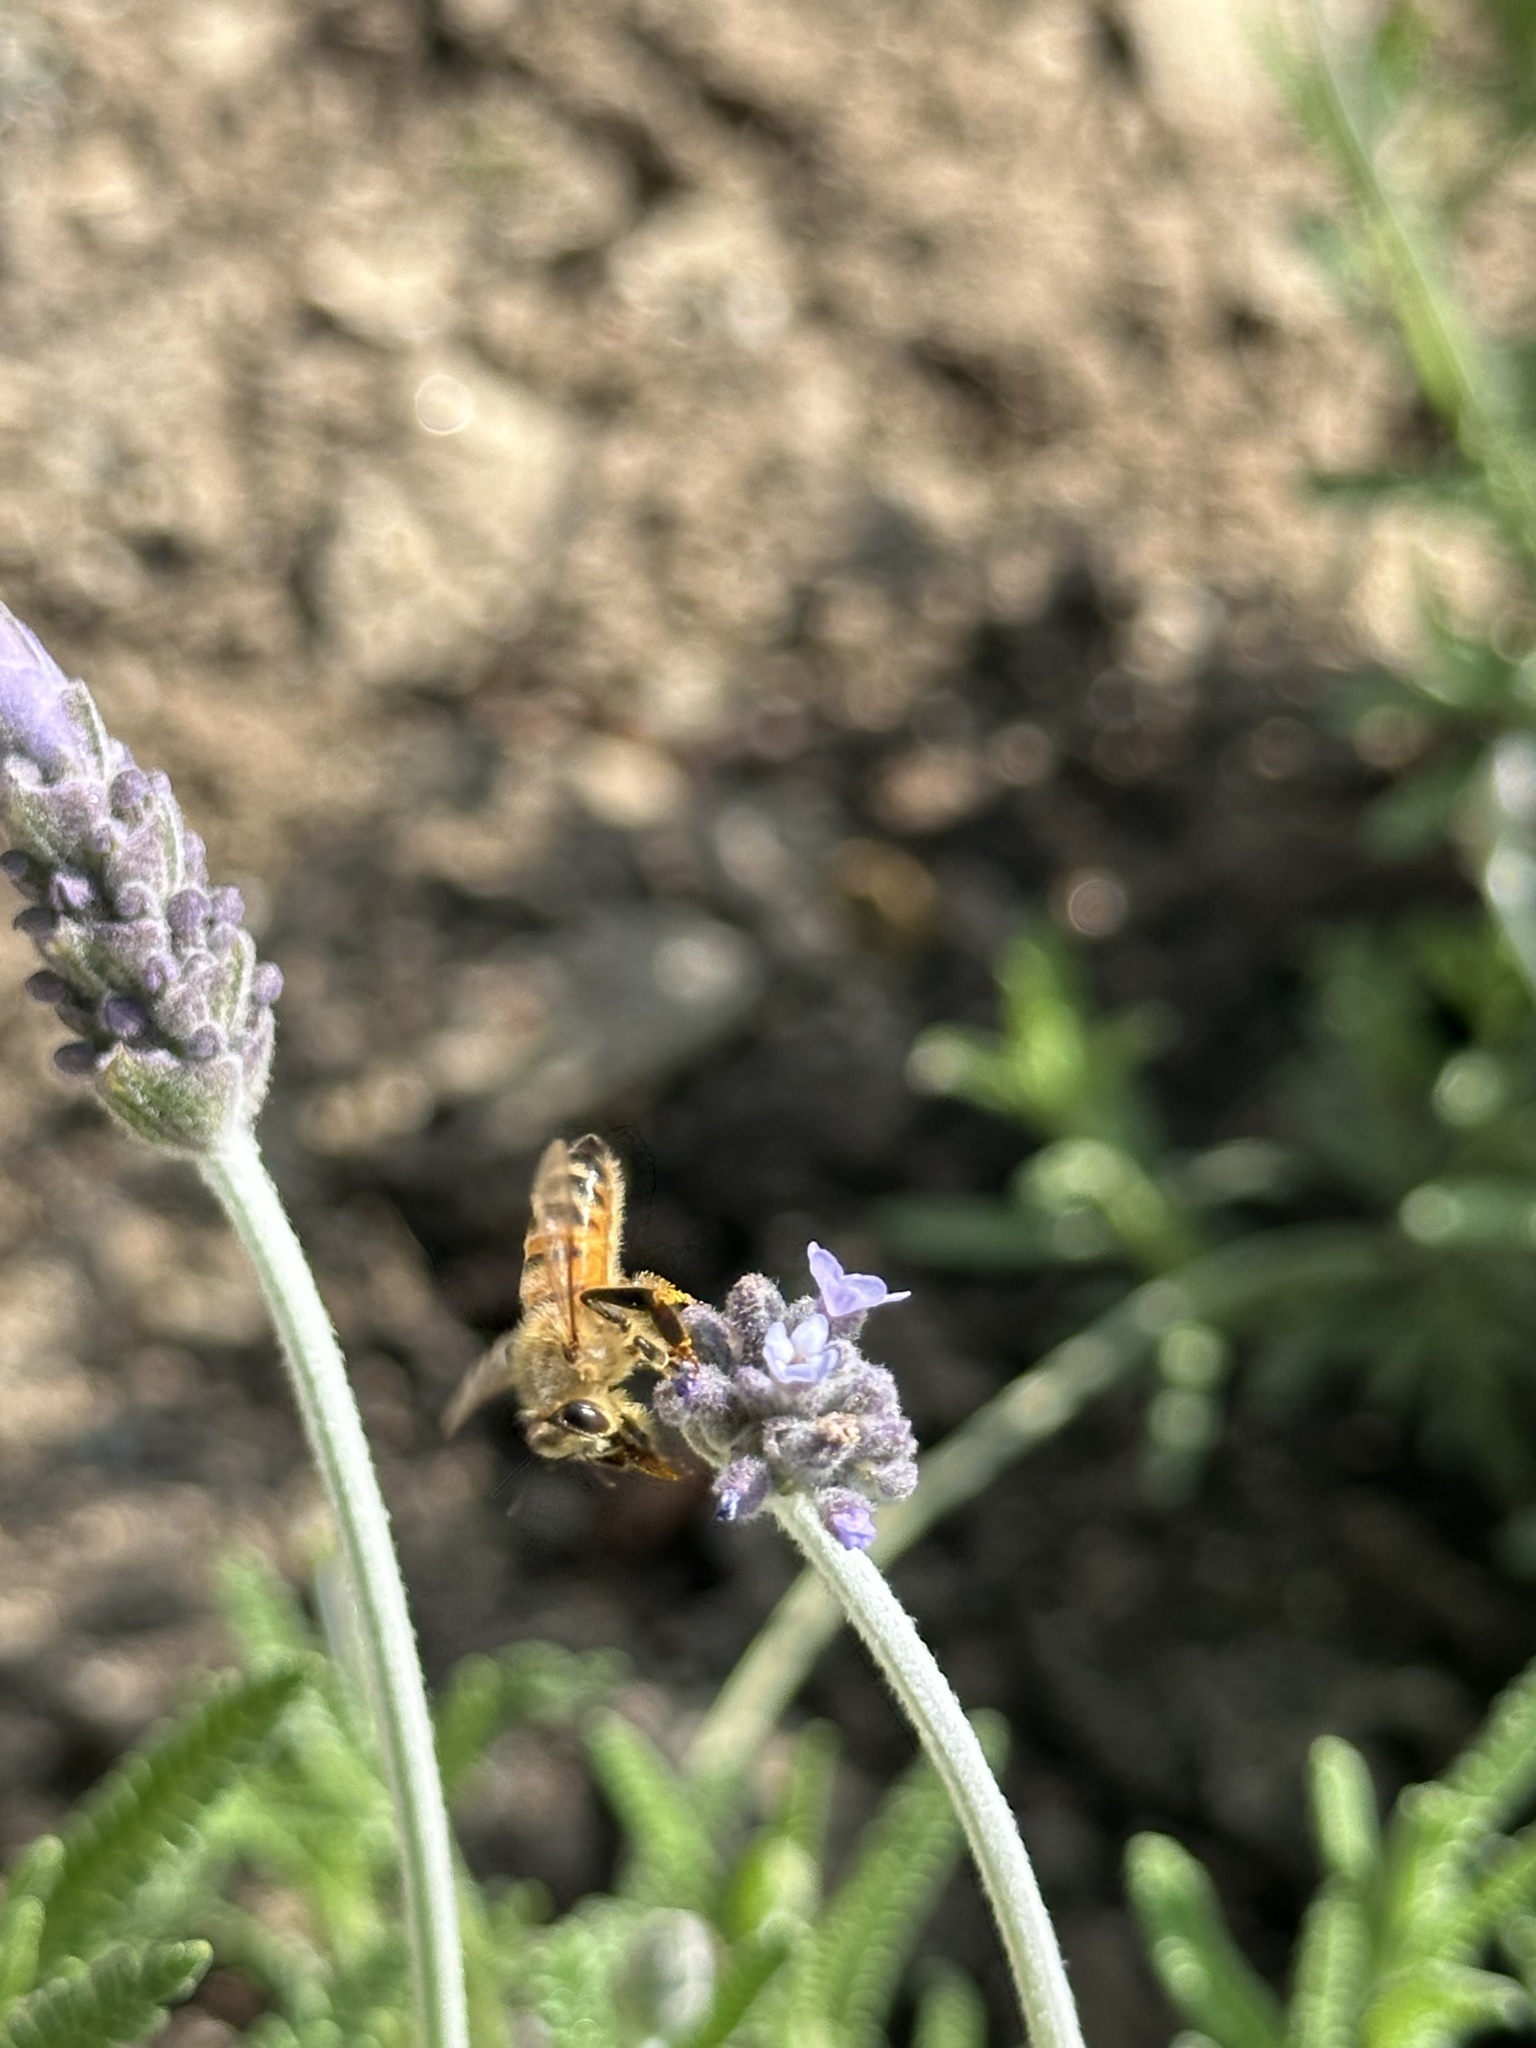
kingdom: Animalia
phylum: Arthropoda
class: Insecta
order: Hymenoptera
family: Apidae
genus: Apis
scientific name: Apis mellifera
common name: Honey bee
